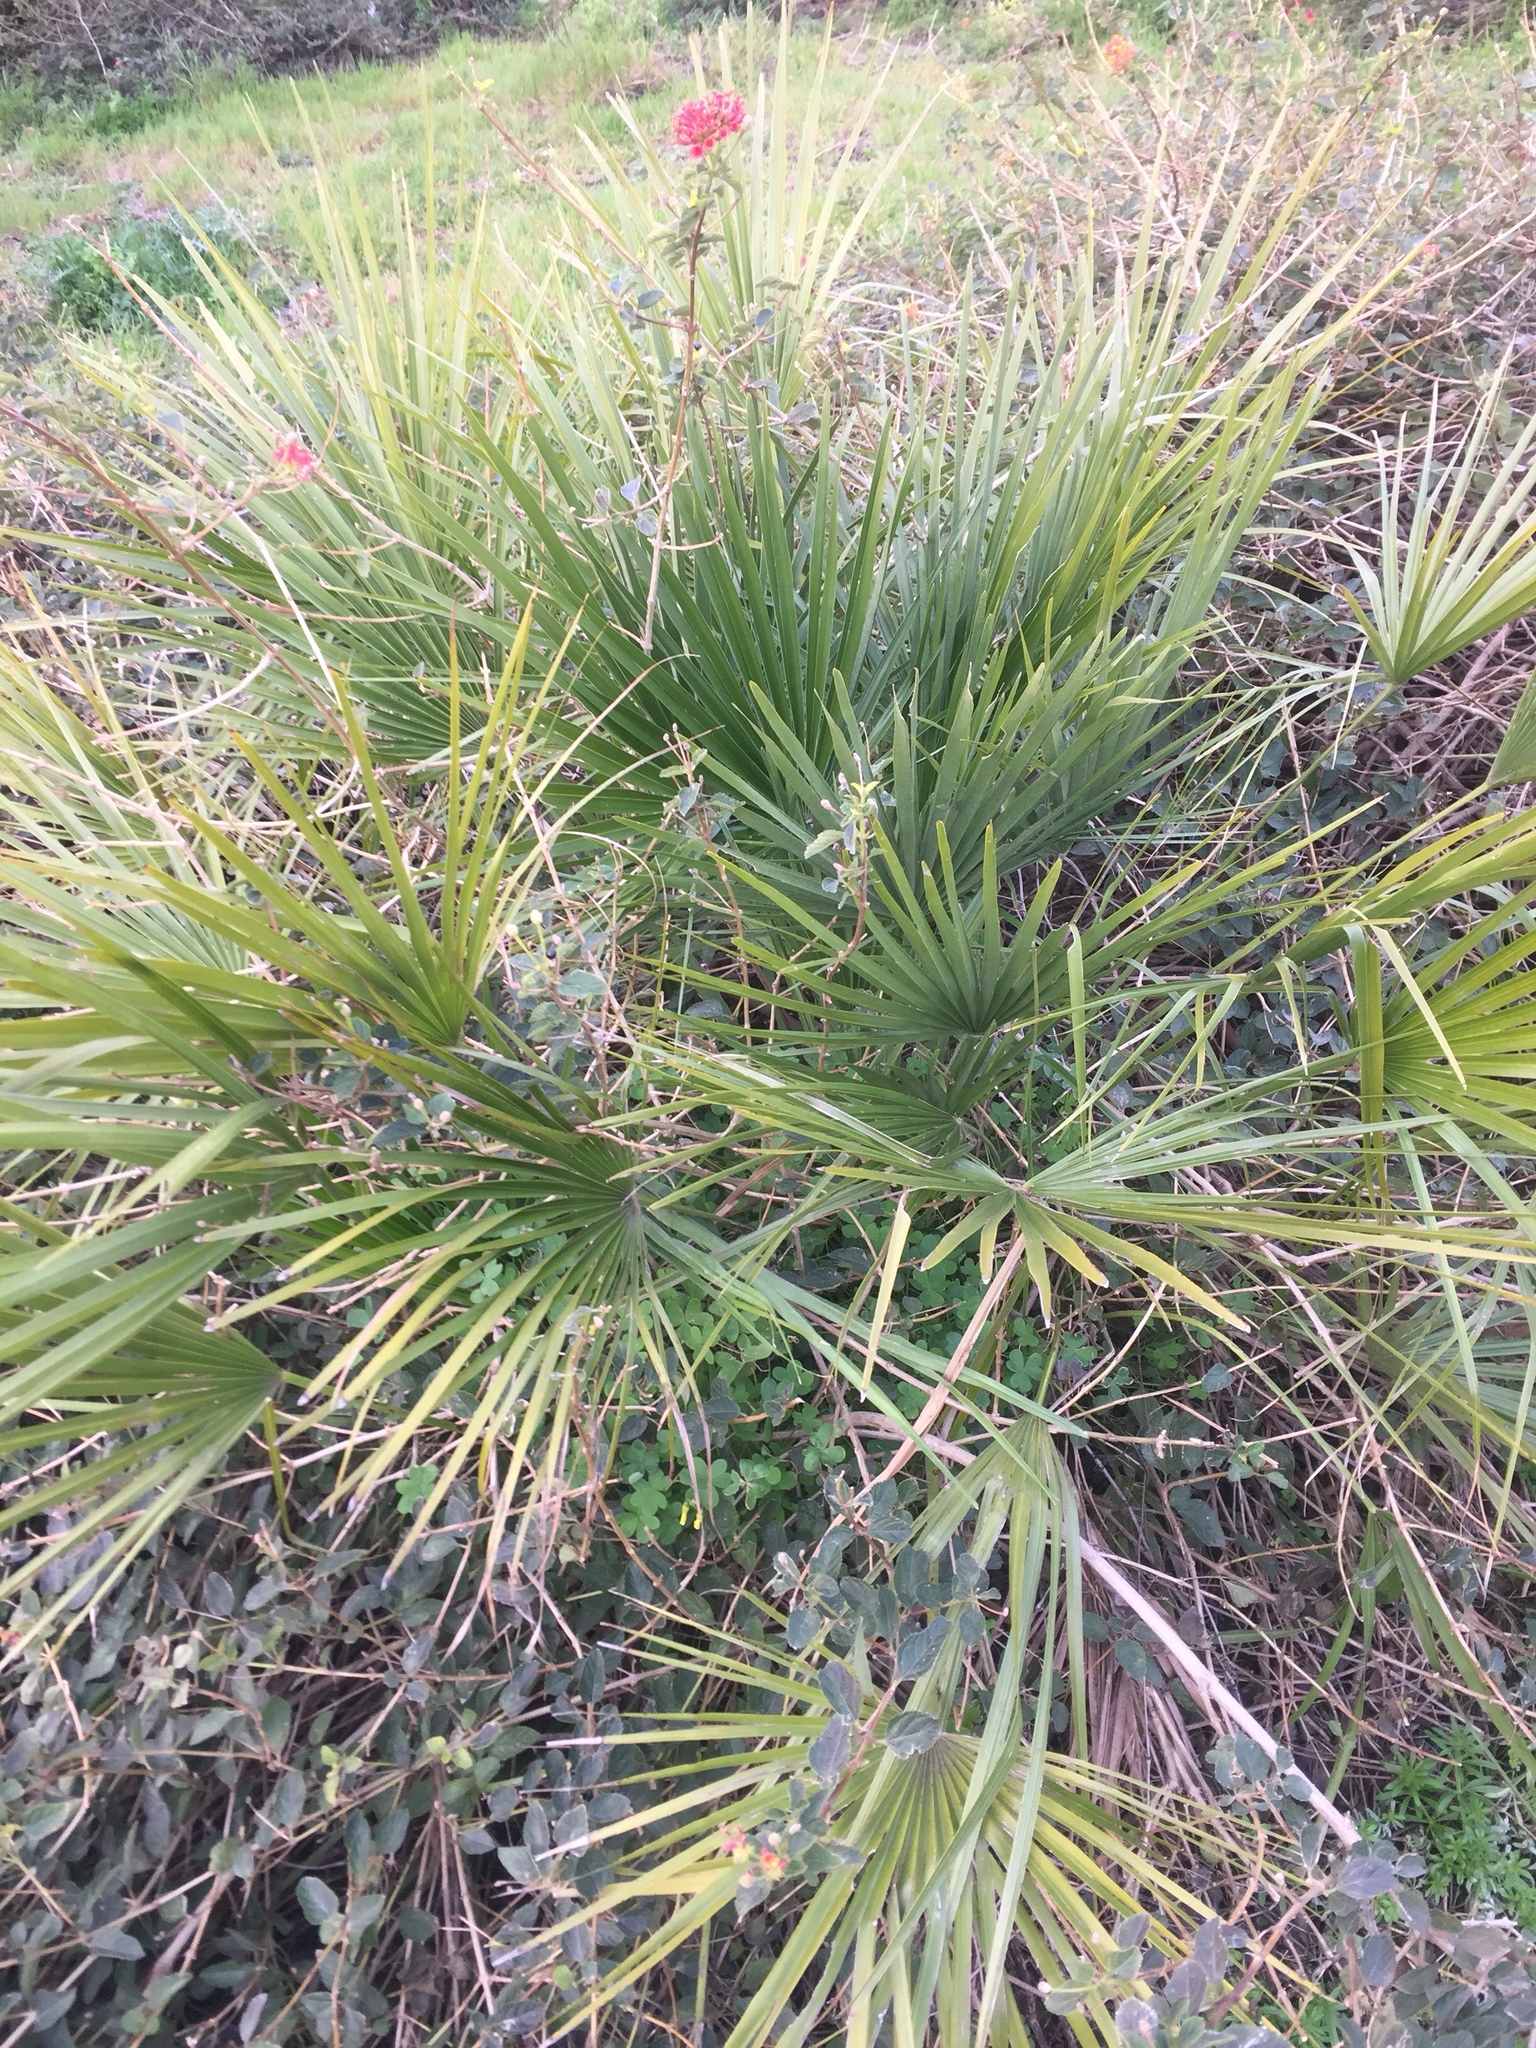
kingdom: Plantae
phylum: Tracheophyta
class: Liliopsida
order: Arecales
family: Arecaceae
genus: Chamaerops
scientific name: Chamaerops humilis
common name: Dwarf fan palm
